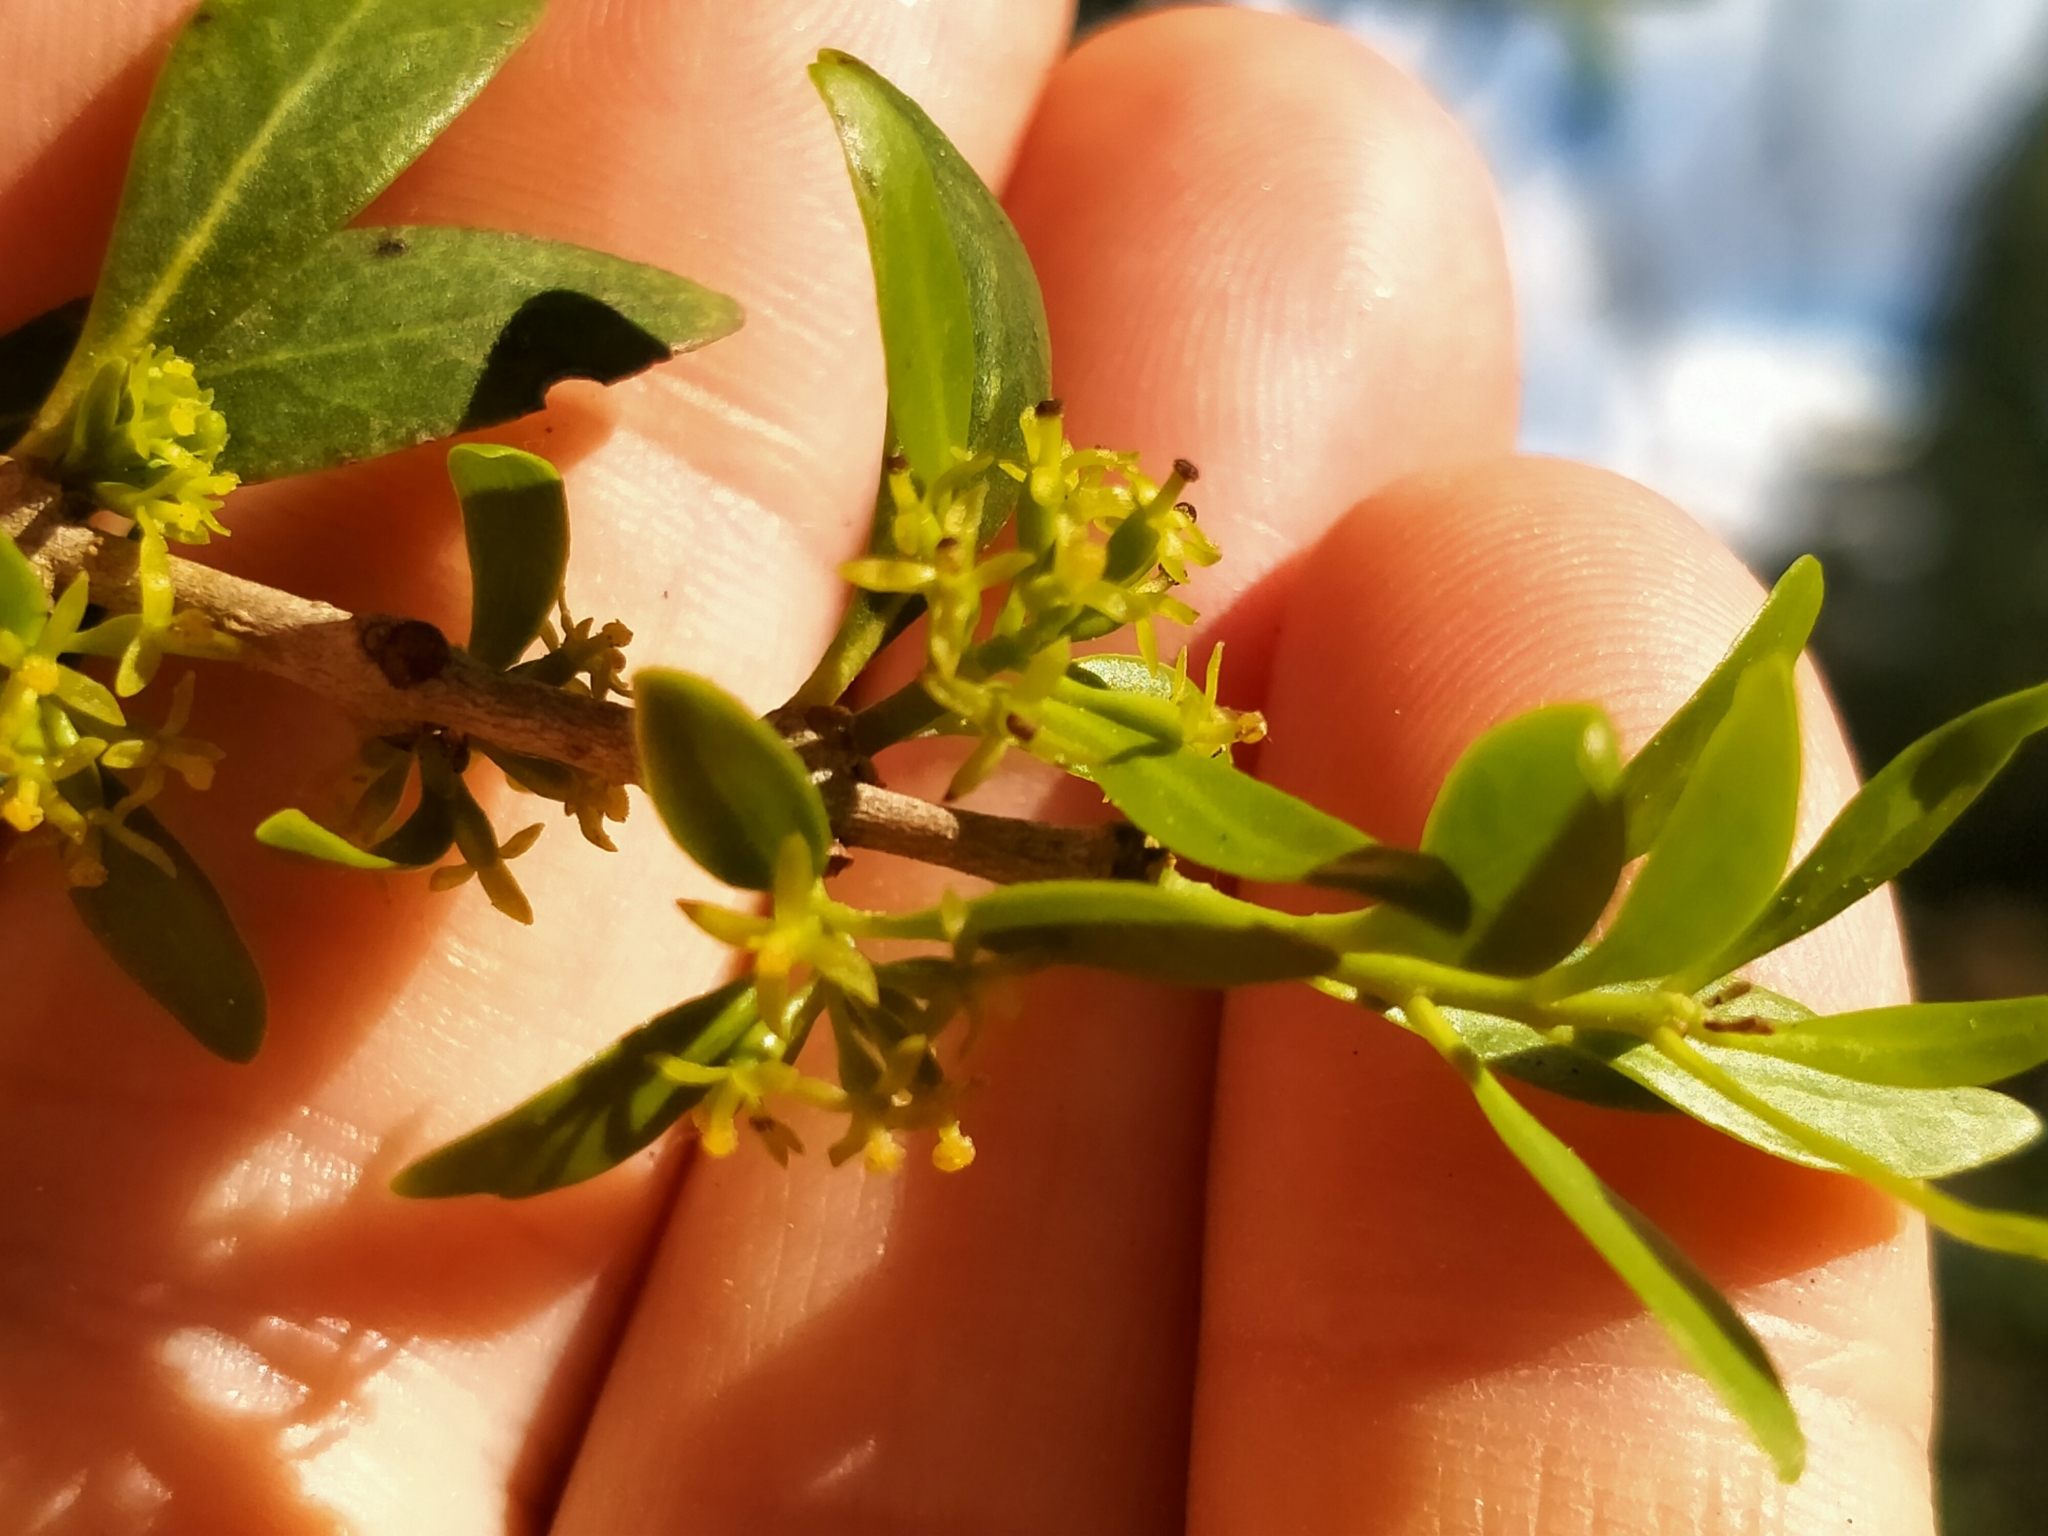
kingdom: Plantae
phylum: Tracheophyta
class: Magnoliopsida
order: Santalales
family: Loranthaceae
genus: Tupeia
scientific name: Tupeia antarctica
